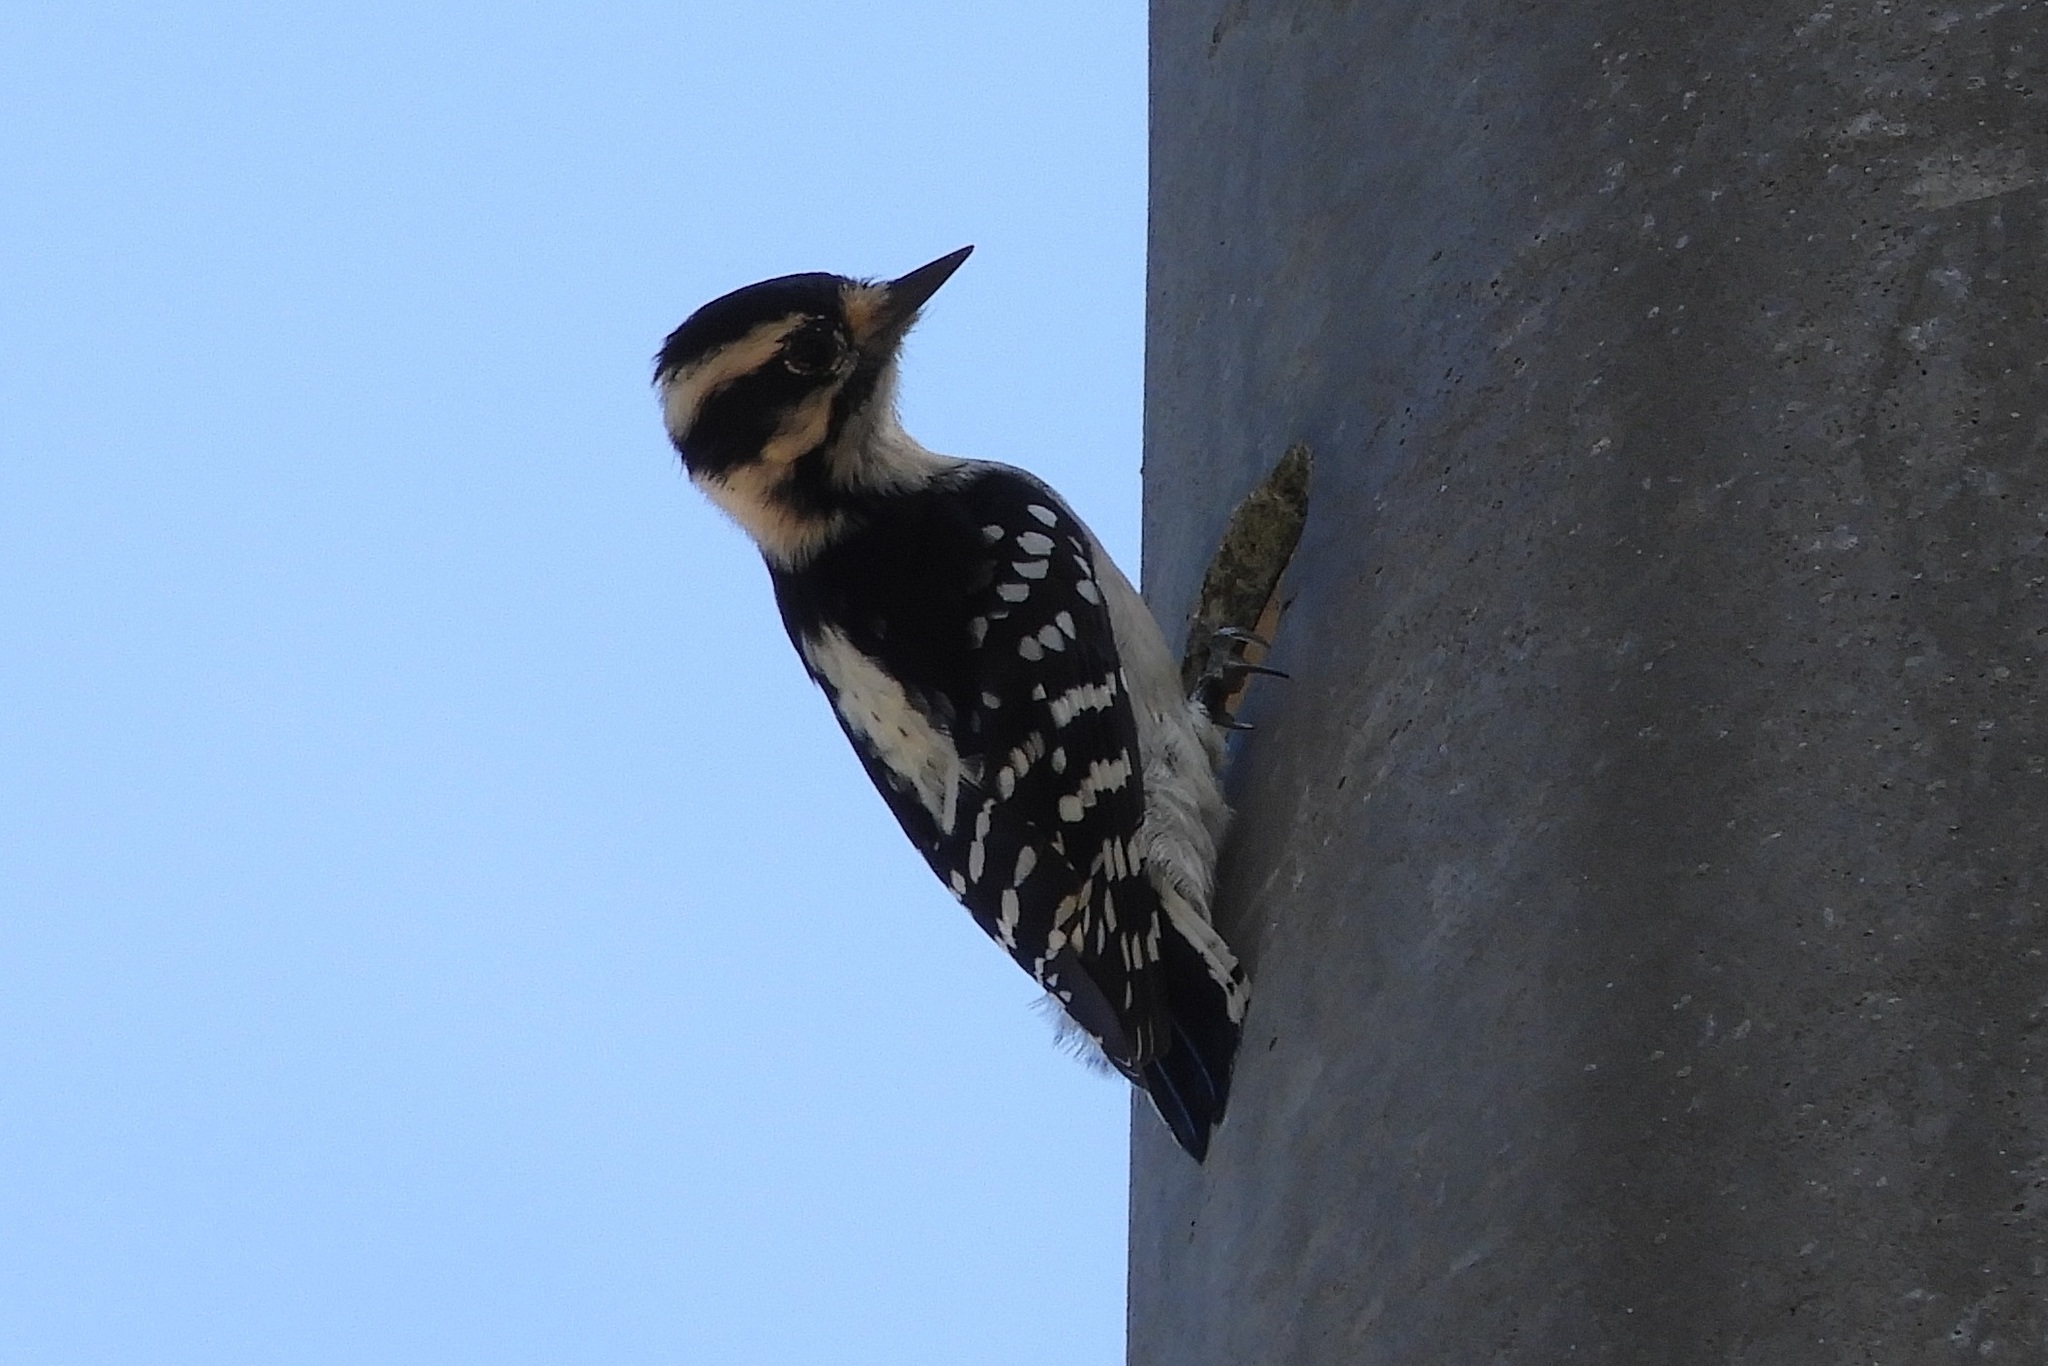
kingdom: Animalia
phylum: Chordata
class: Aves
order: Piciformes
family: Picidae
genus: Dryobates
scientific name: Dryobates pubescens
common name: Downy woodpecker
